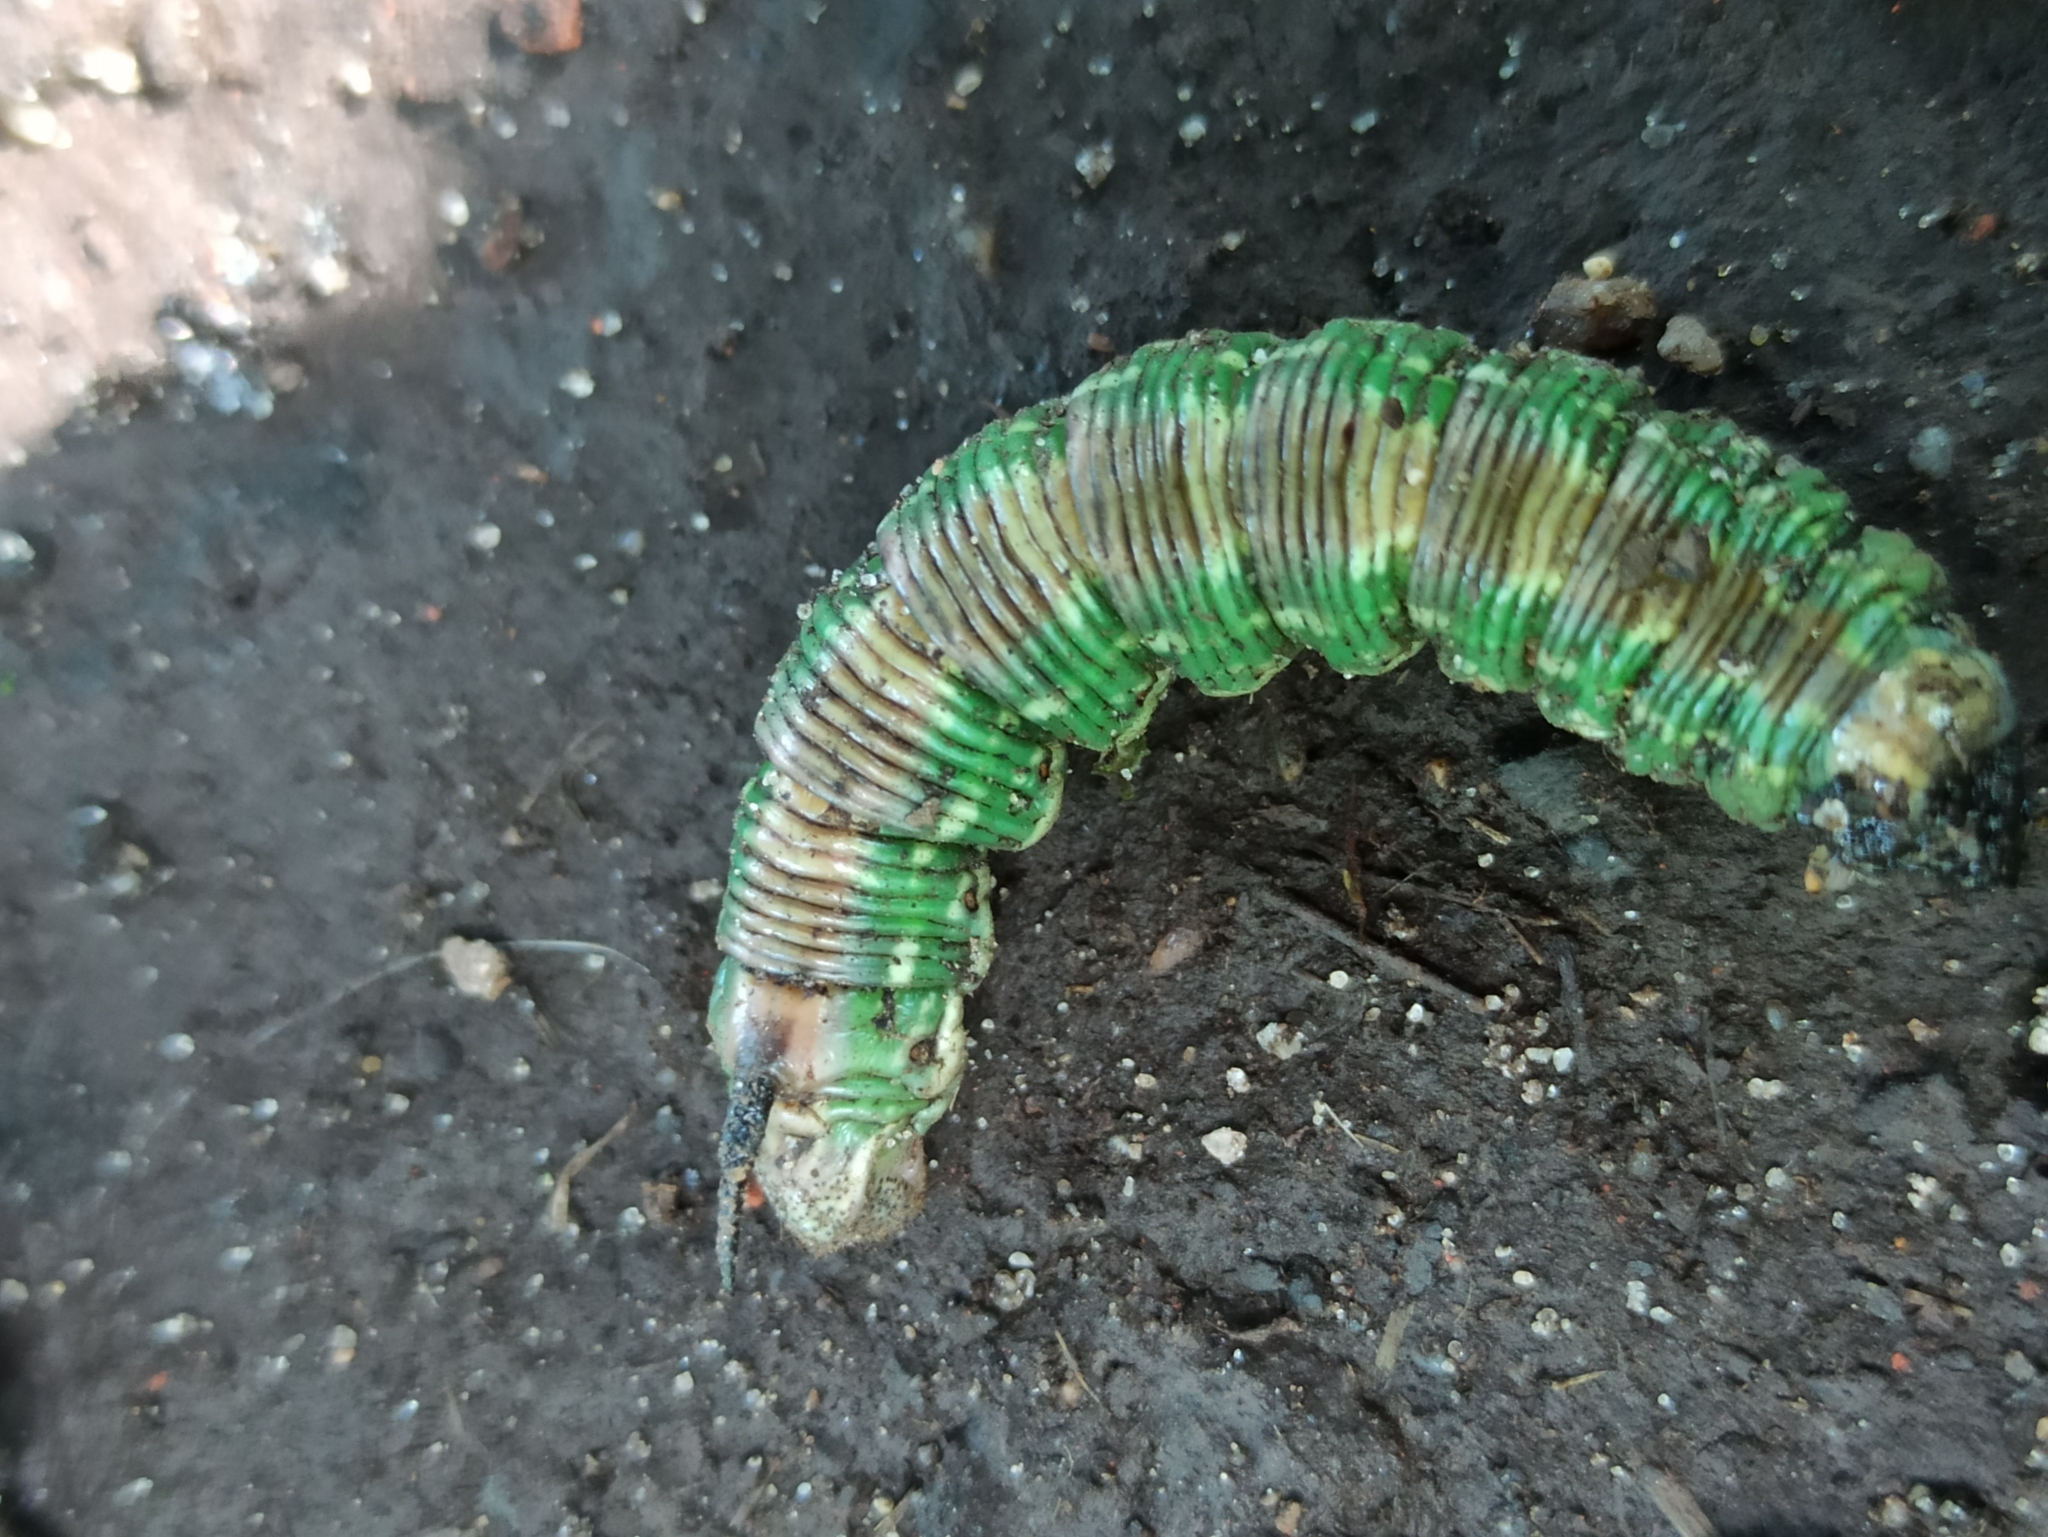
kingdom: Animalia
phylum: Arthropoda
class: Insecta
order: Lepidoptera
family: Sphingidae
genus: Sphinx
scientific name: Sphinx pinastri
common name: Pine hawk-moth
